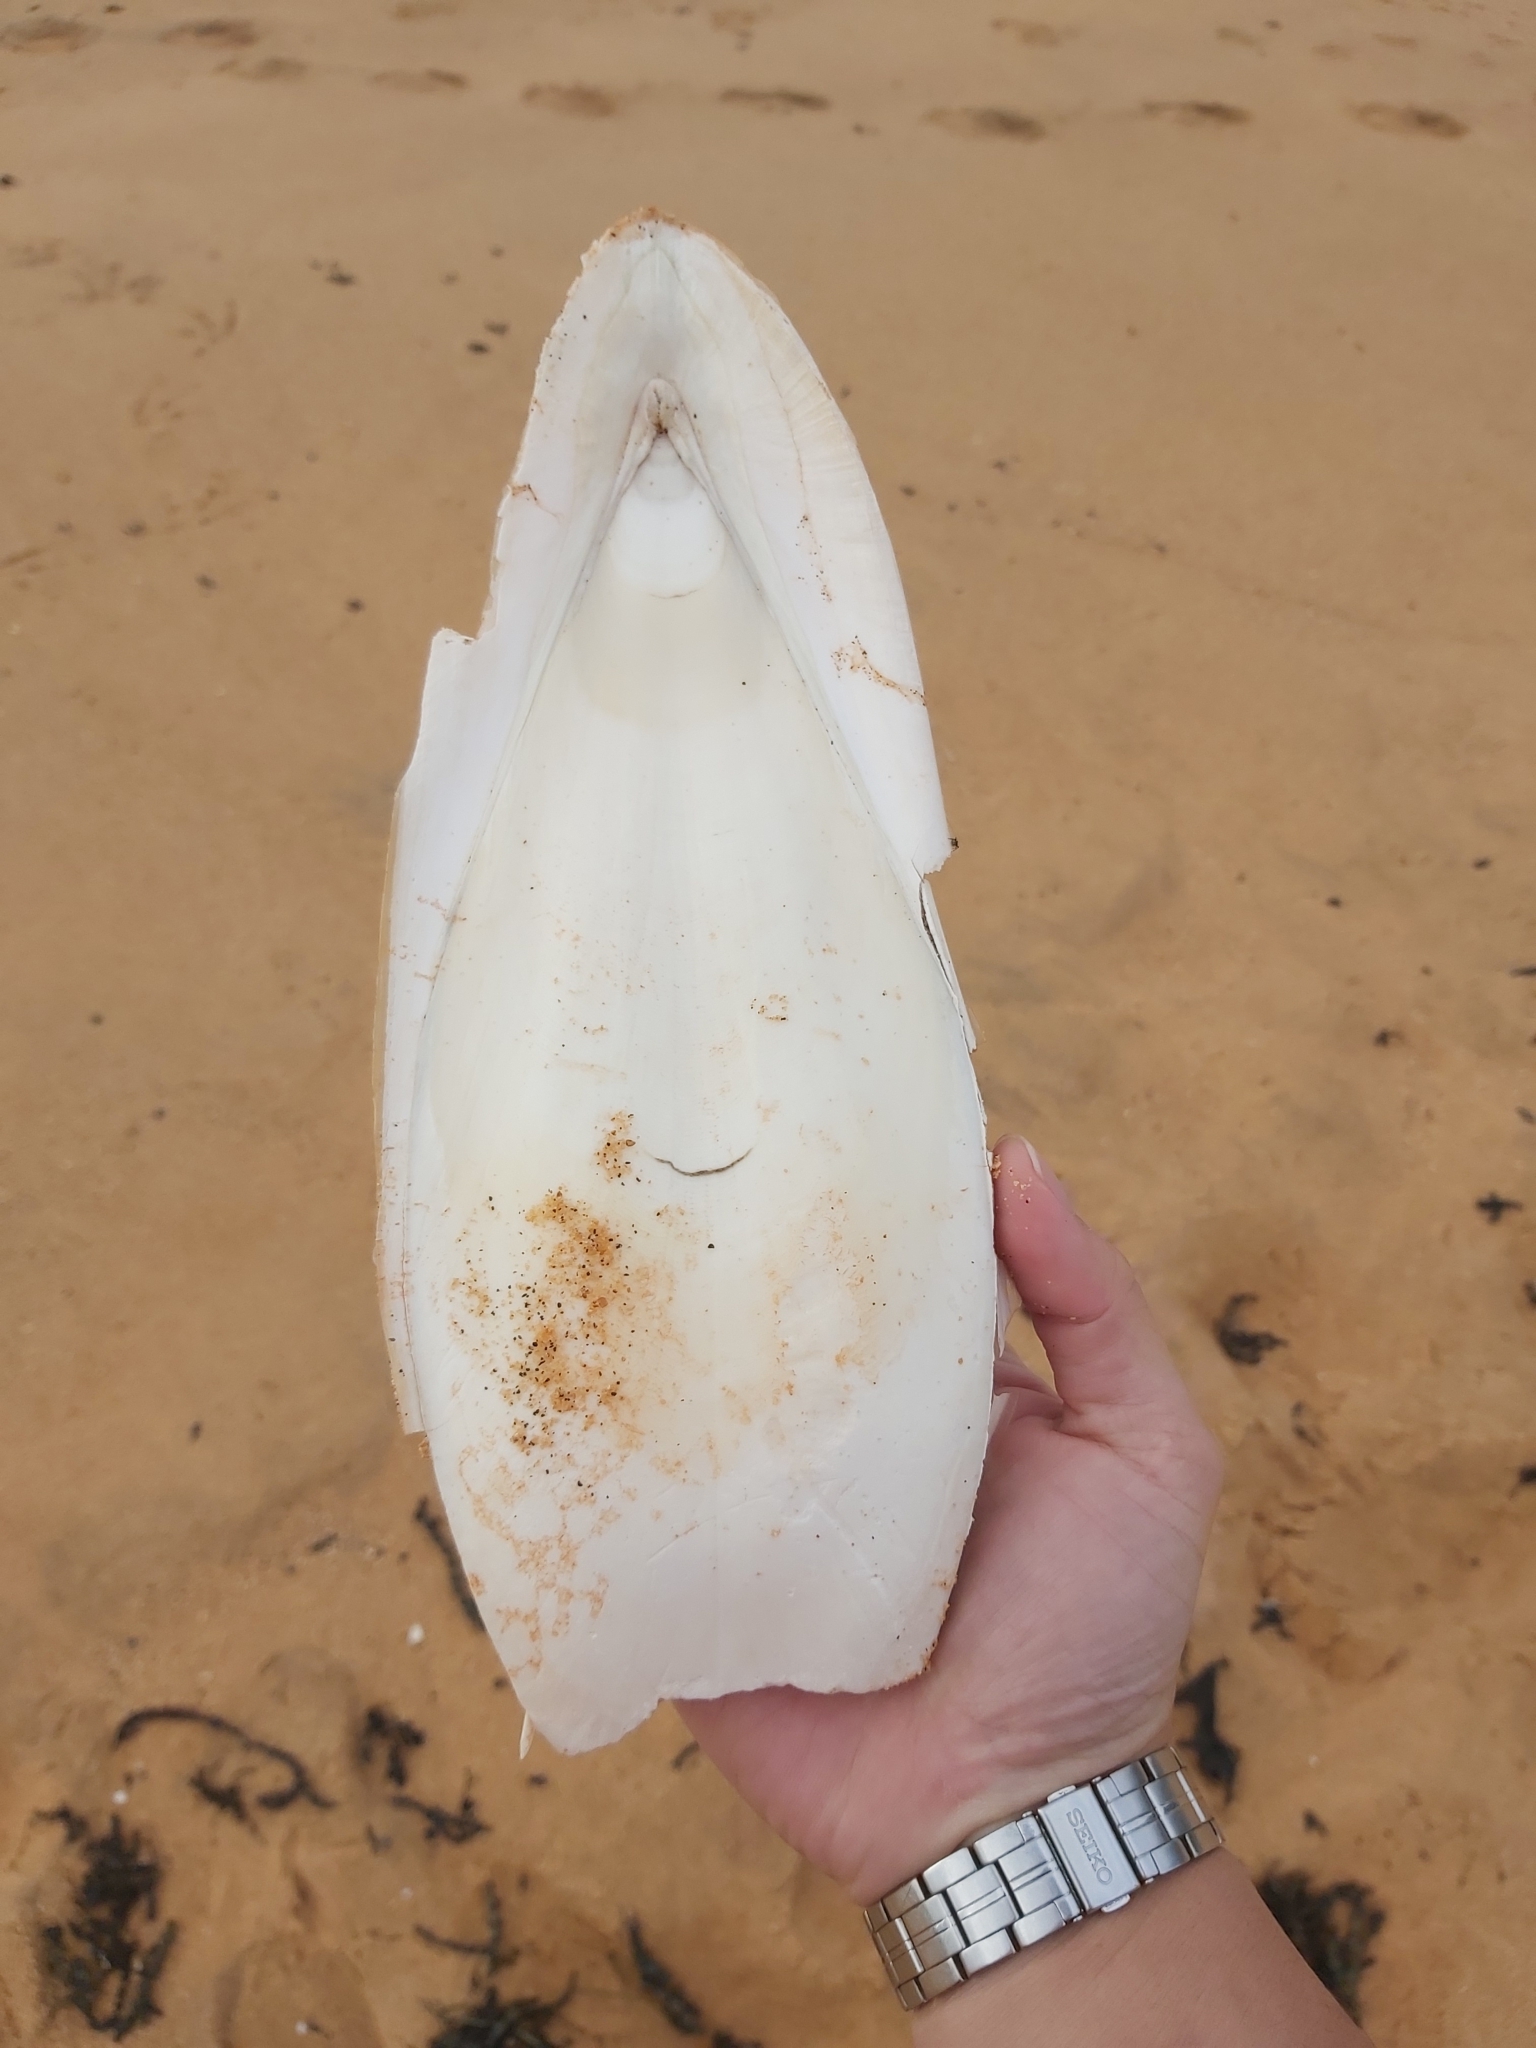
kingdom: Animalia
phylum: Mollusca
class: Cephalopoda
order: Sepiida
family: Sepiidae
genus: Ascarosepion
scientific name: Ascarosepion apama
